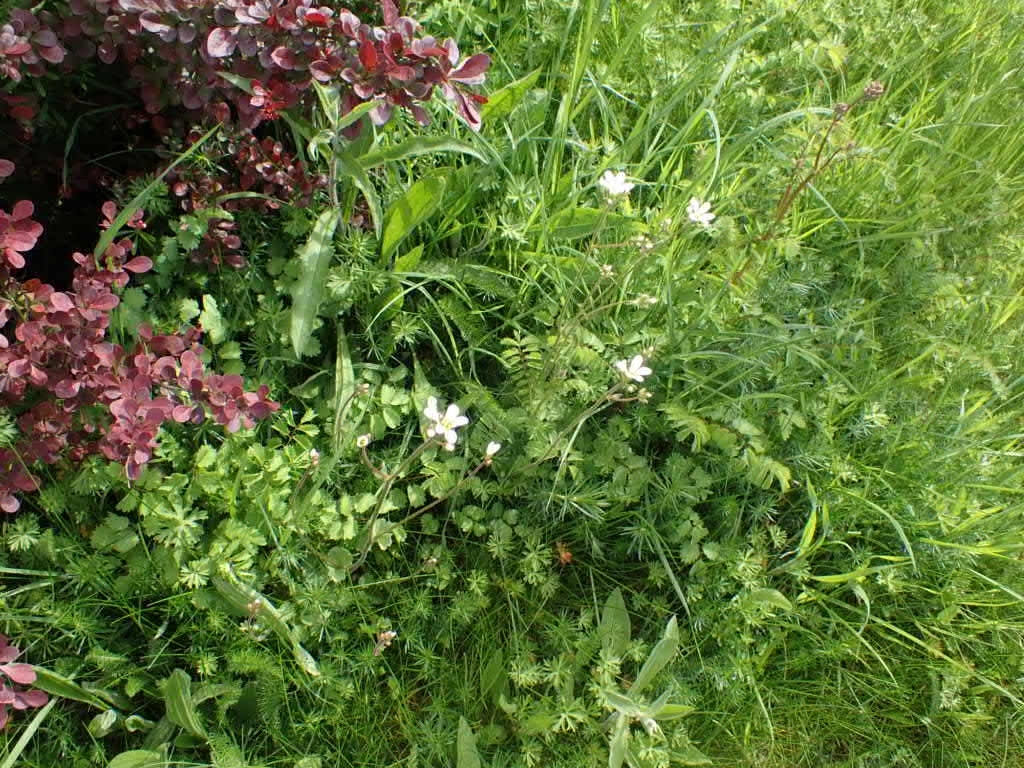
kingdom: Plantae
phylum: Tracheophyta
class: Magnoliopsida
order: Saxifragales
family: Saxifragaceae
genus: Saxifraga
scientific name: Saxifraga granulata
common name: Meadow saxifrage
